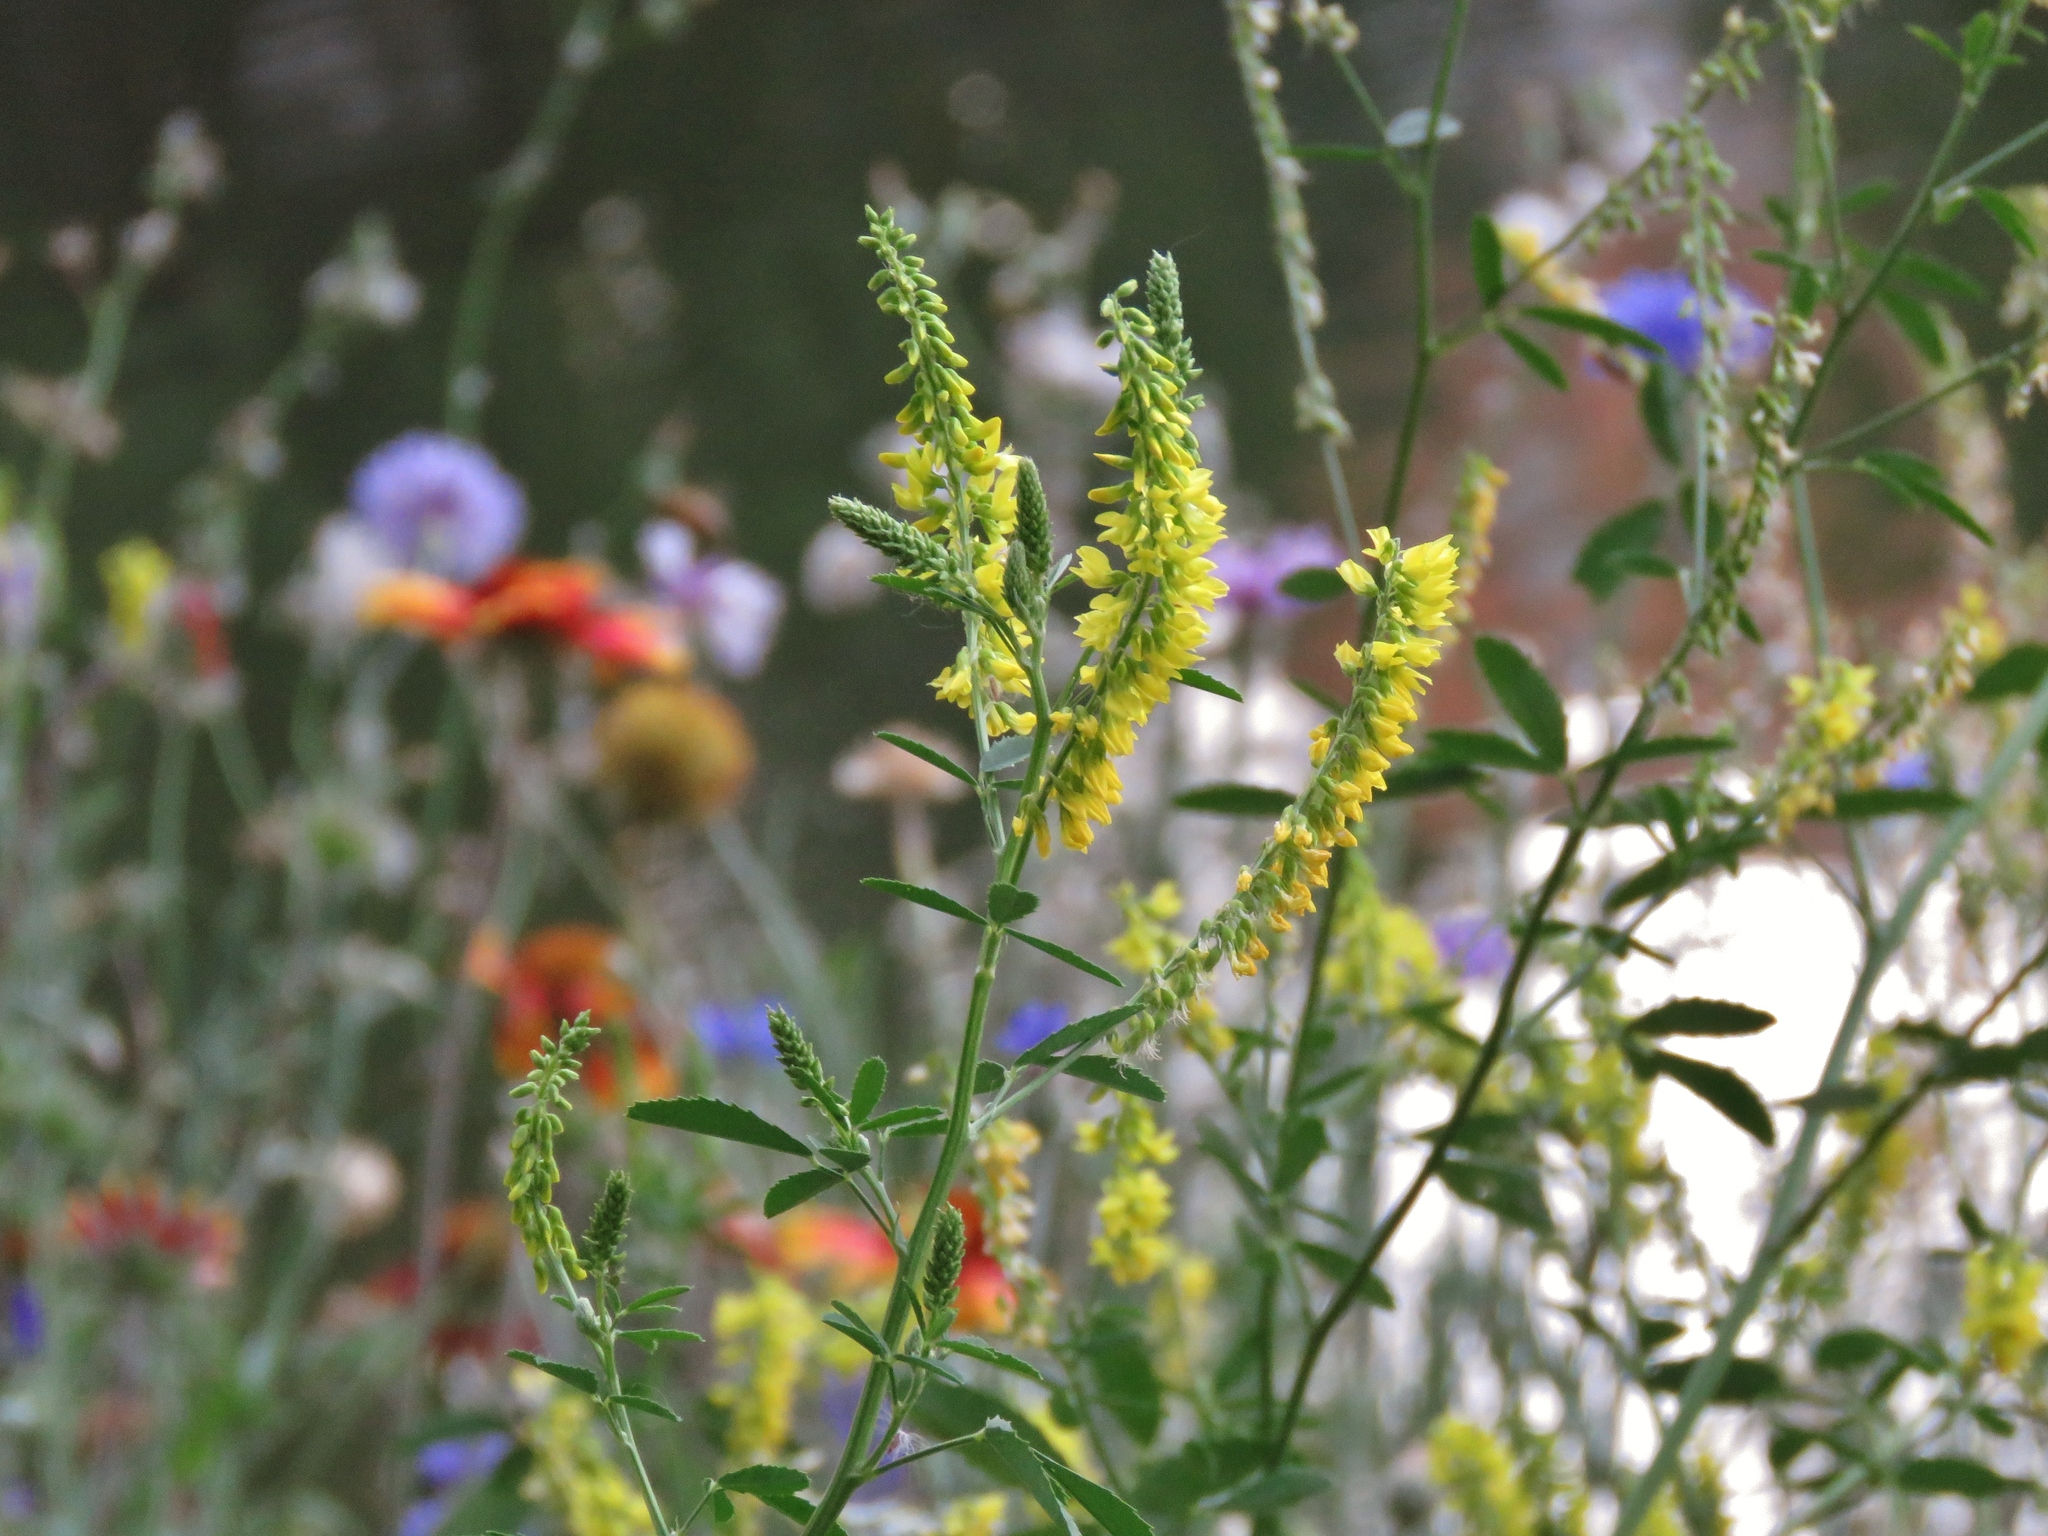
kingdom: Plantae
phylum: Tracheophyta
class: Magnoliopsida
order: Fabales
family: Fabaceae
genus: Melilotus
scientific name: Melilotus officinalis
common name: Sweetclover
